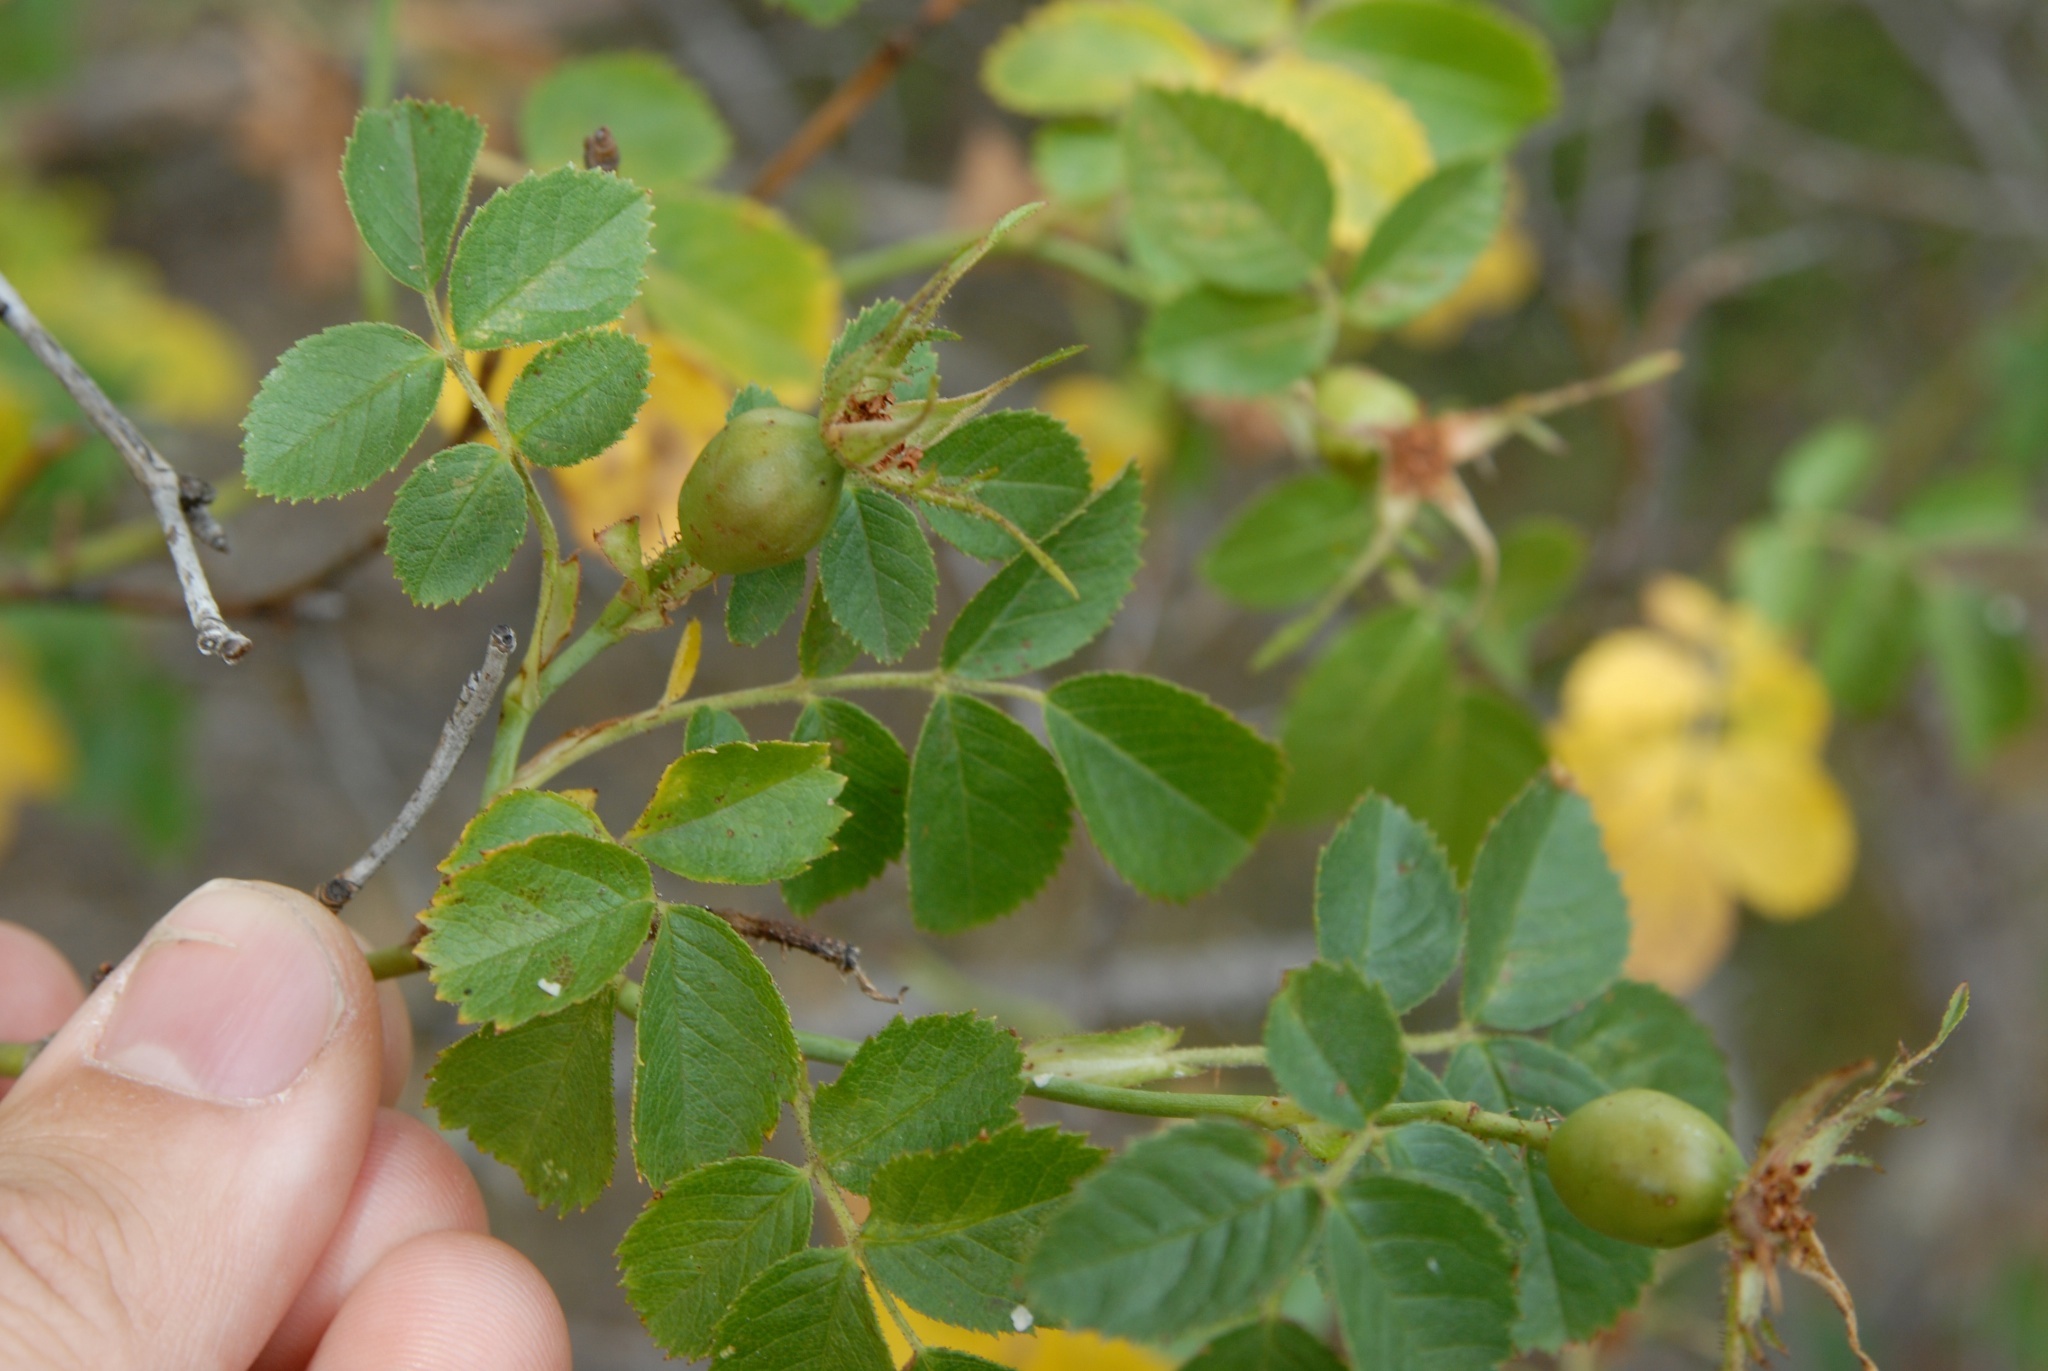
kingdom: Plantae
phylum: Tracheophyta
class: Magnoliopsida
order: Rosales
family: Rosaceae
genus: Rosa
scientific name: Rosa rubiginosa
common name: Sweet-briar
